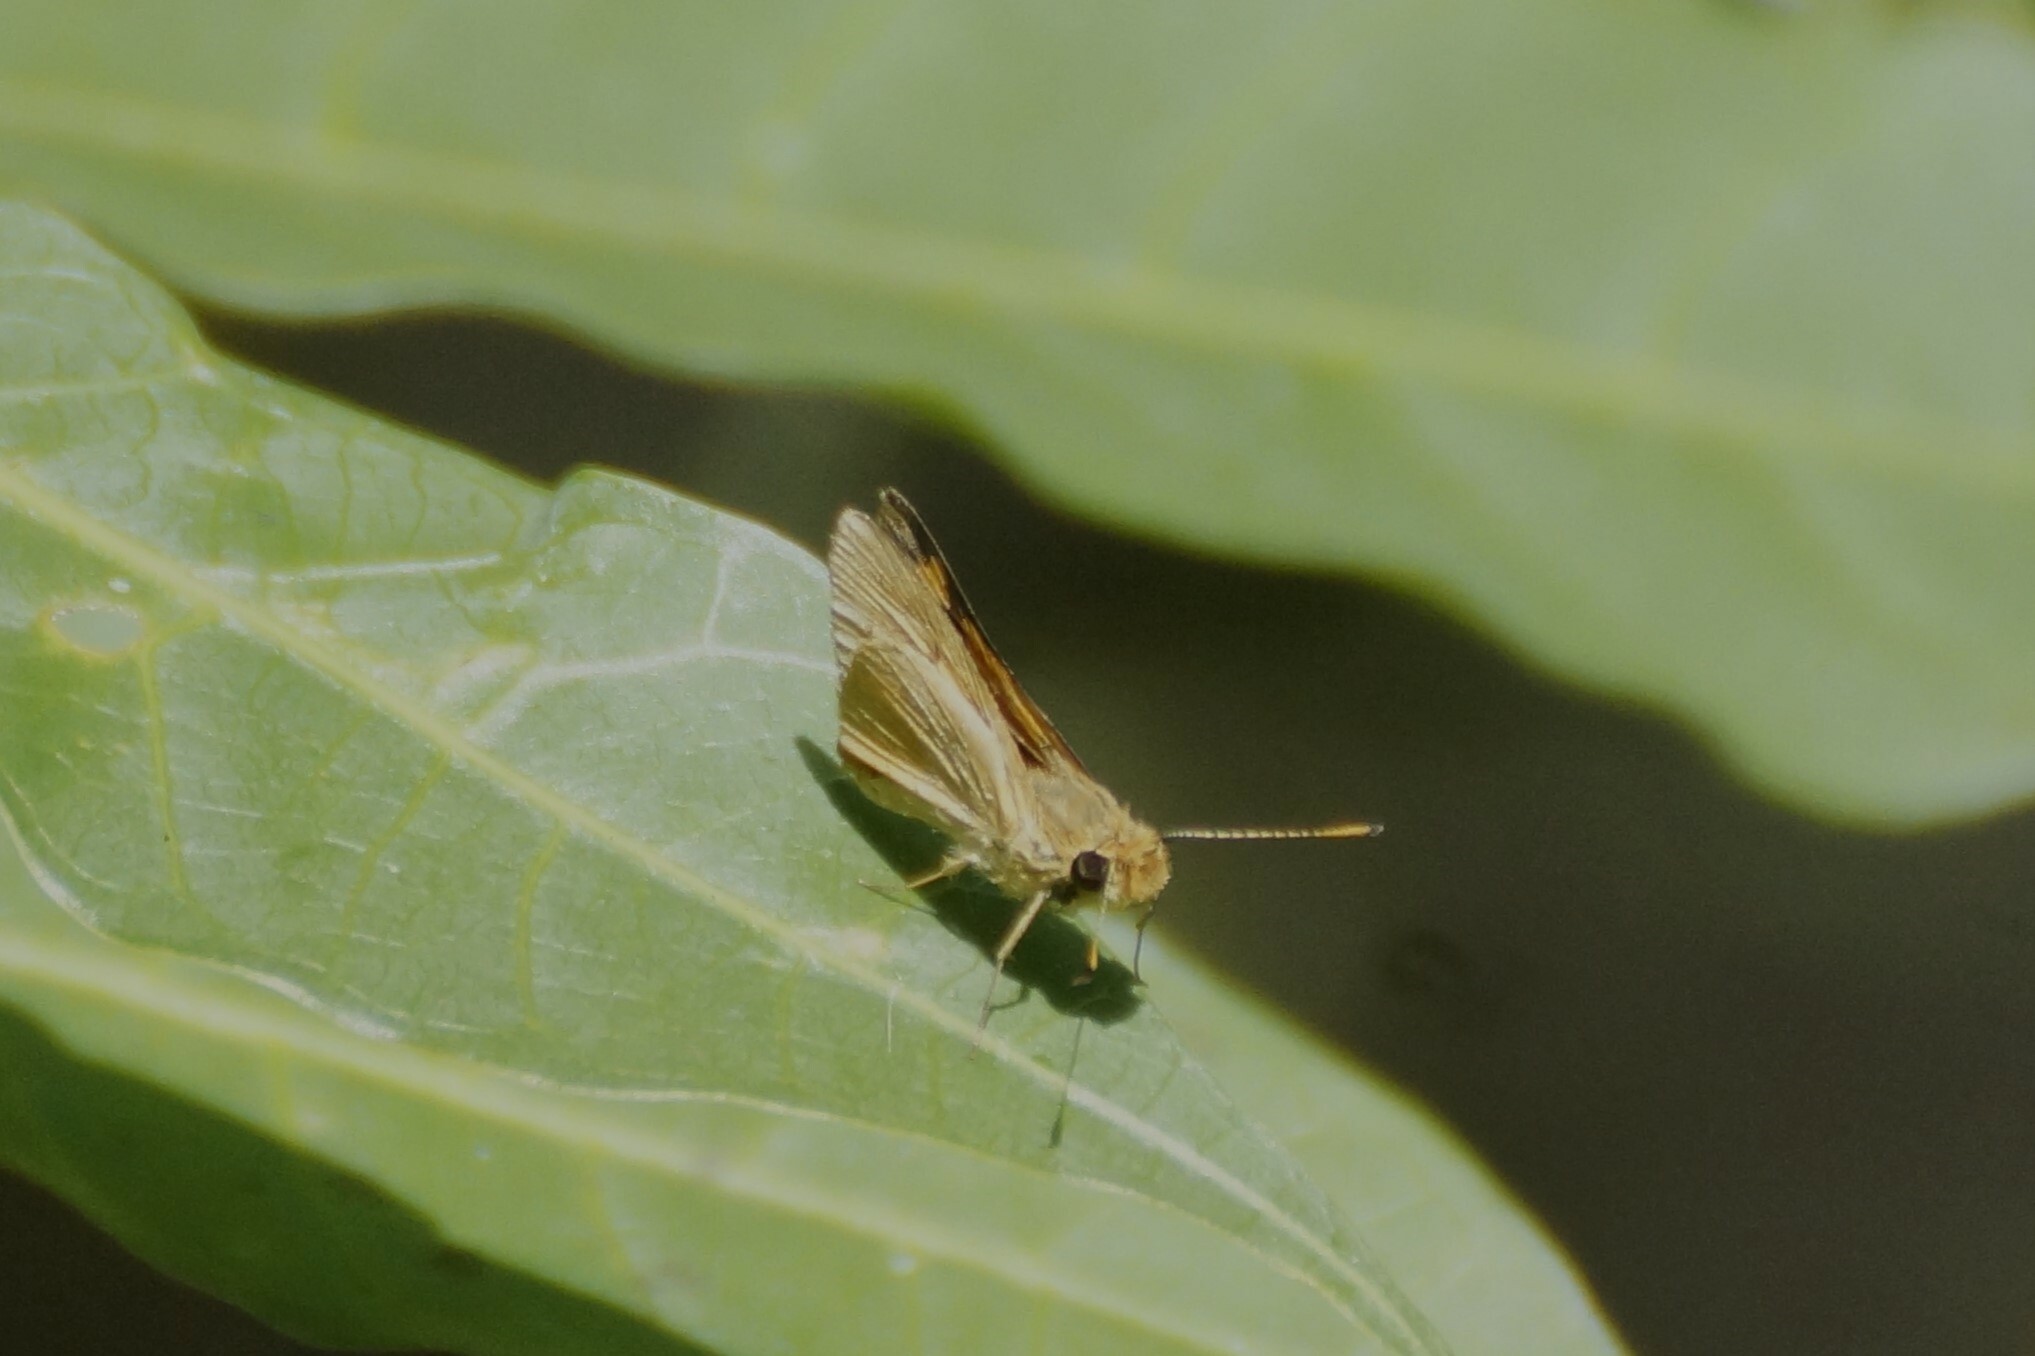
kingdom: Animalia
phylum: Arthropoda
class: Insecta
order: Lepidoptera
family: Hesperiidae
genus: Ocybadistes
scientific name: Ocybadistes ardea
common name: Dark orange dart
